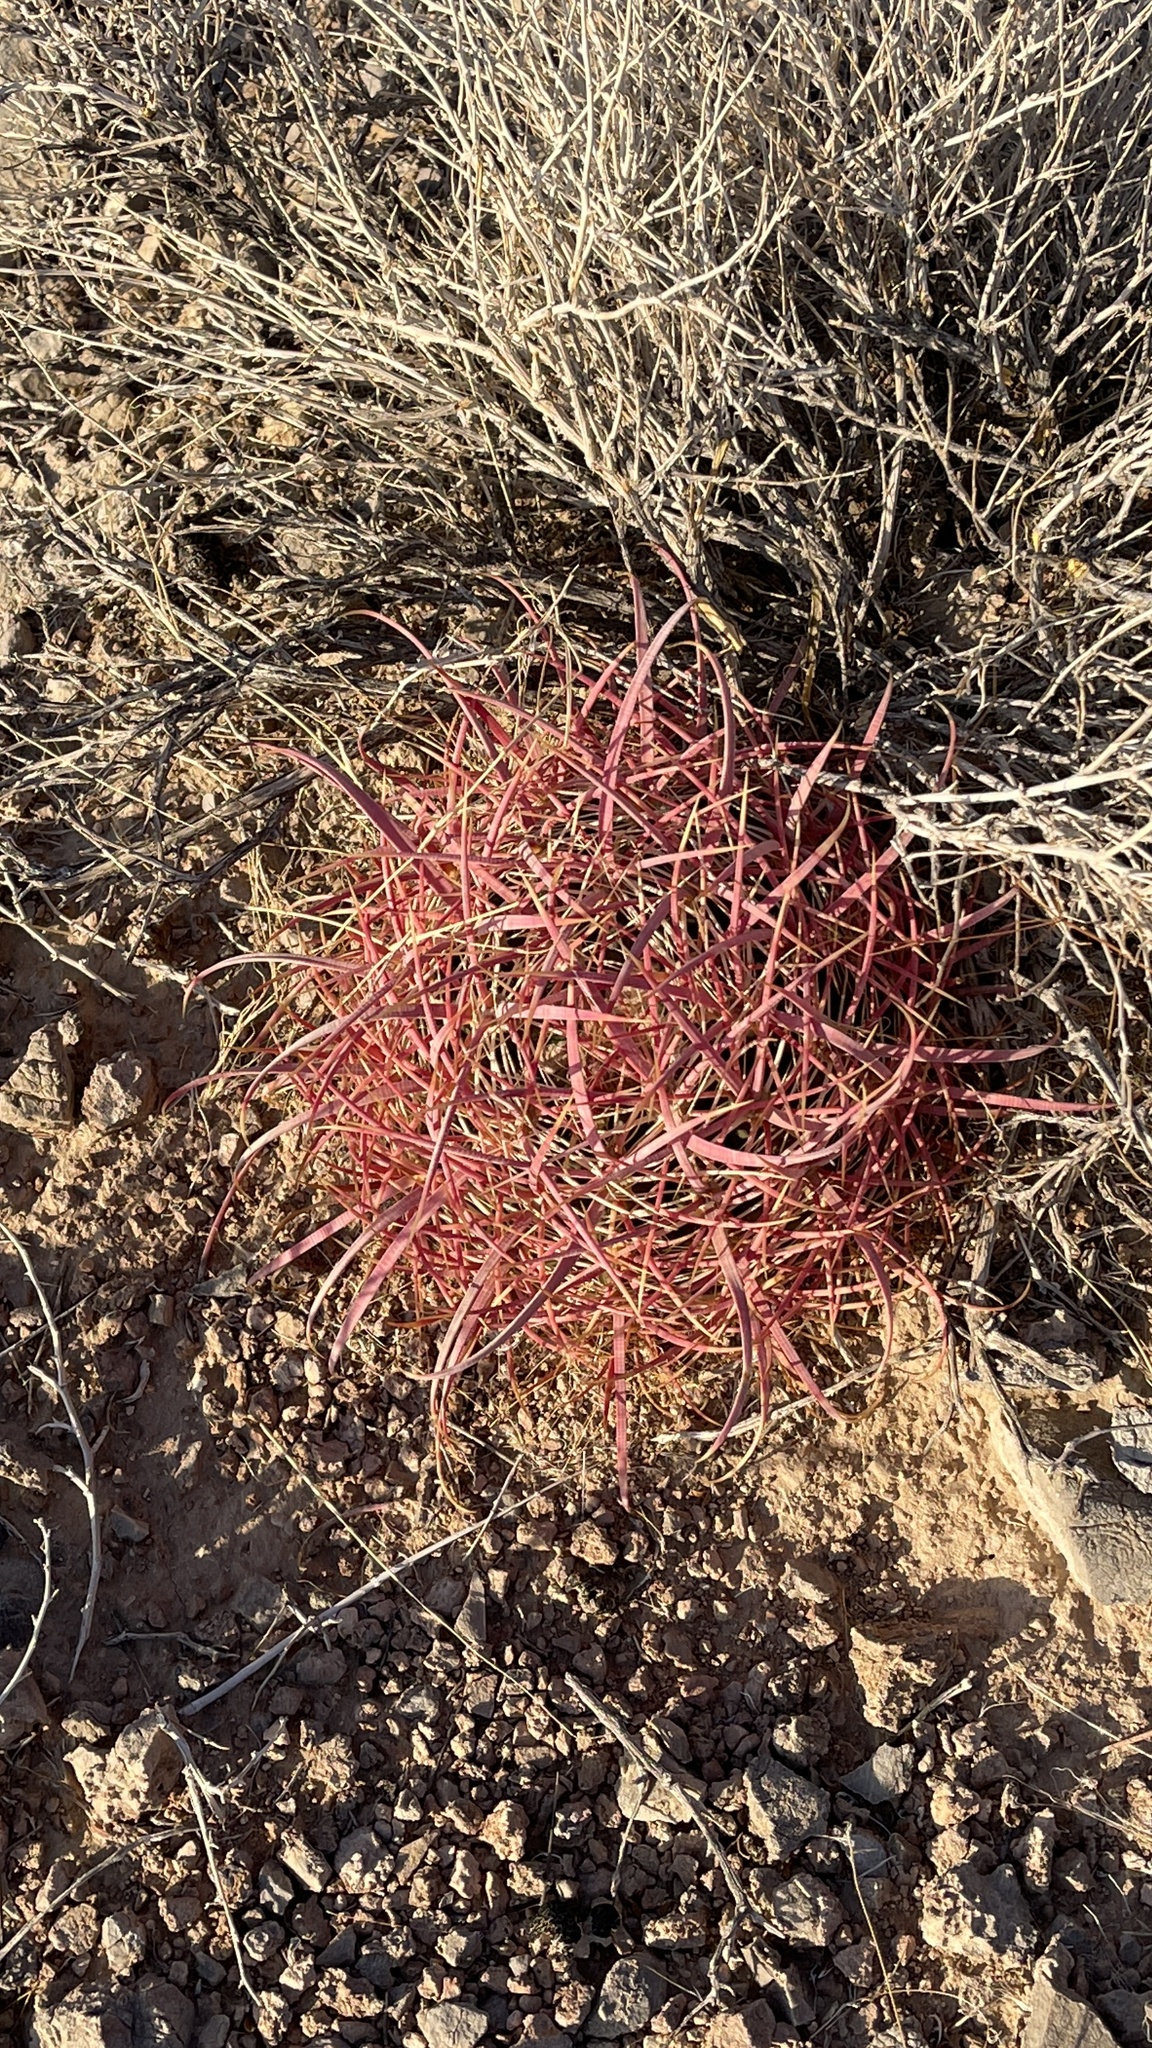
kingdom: Plantae
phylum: Tracheophyta
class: Magnoliopsida
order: Caryophyllales
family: Cactaceae
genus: Ferocactus
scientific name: Ferocactus cylindraceus
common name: California barrel cactus
